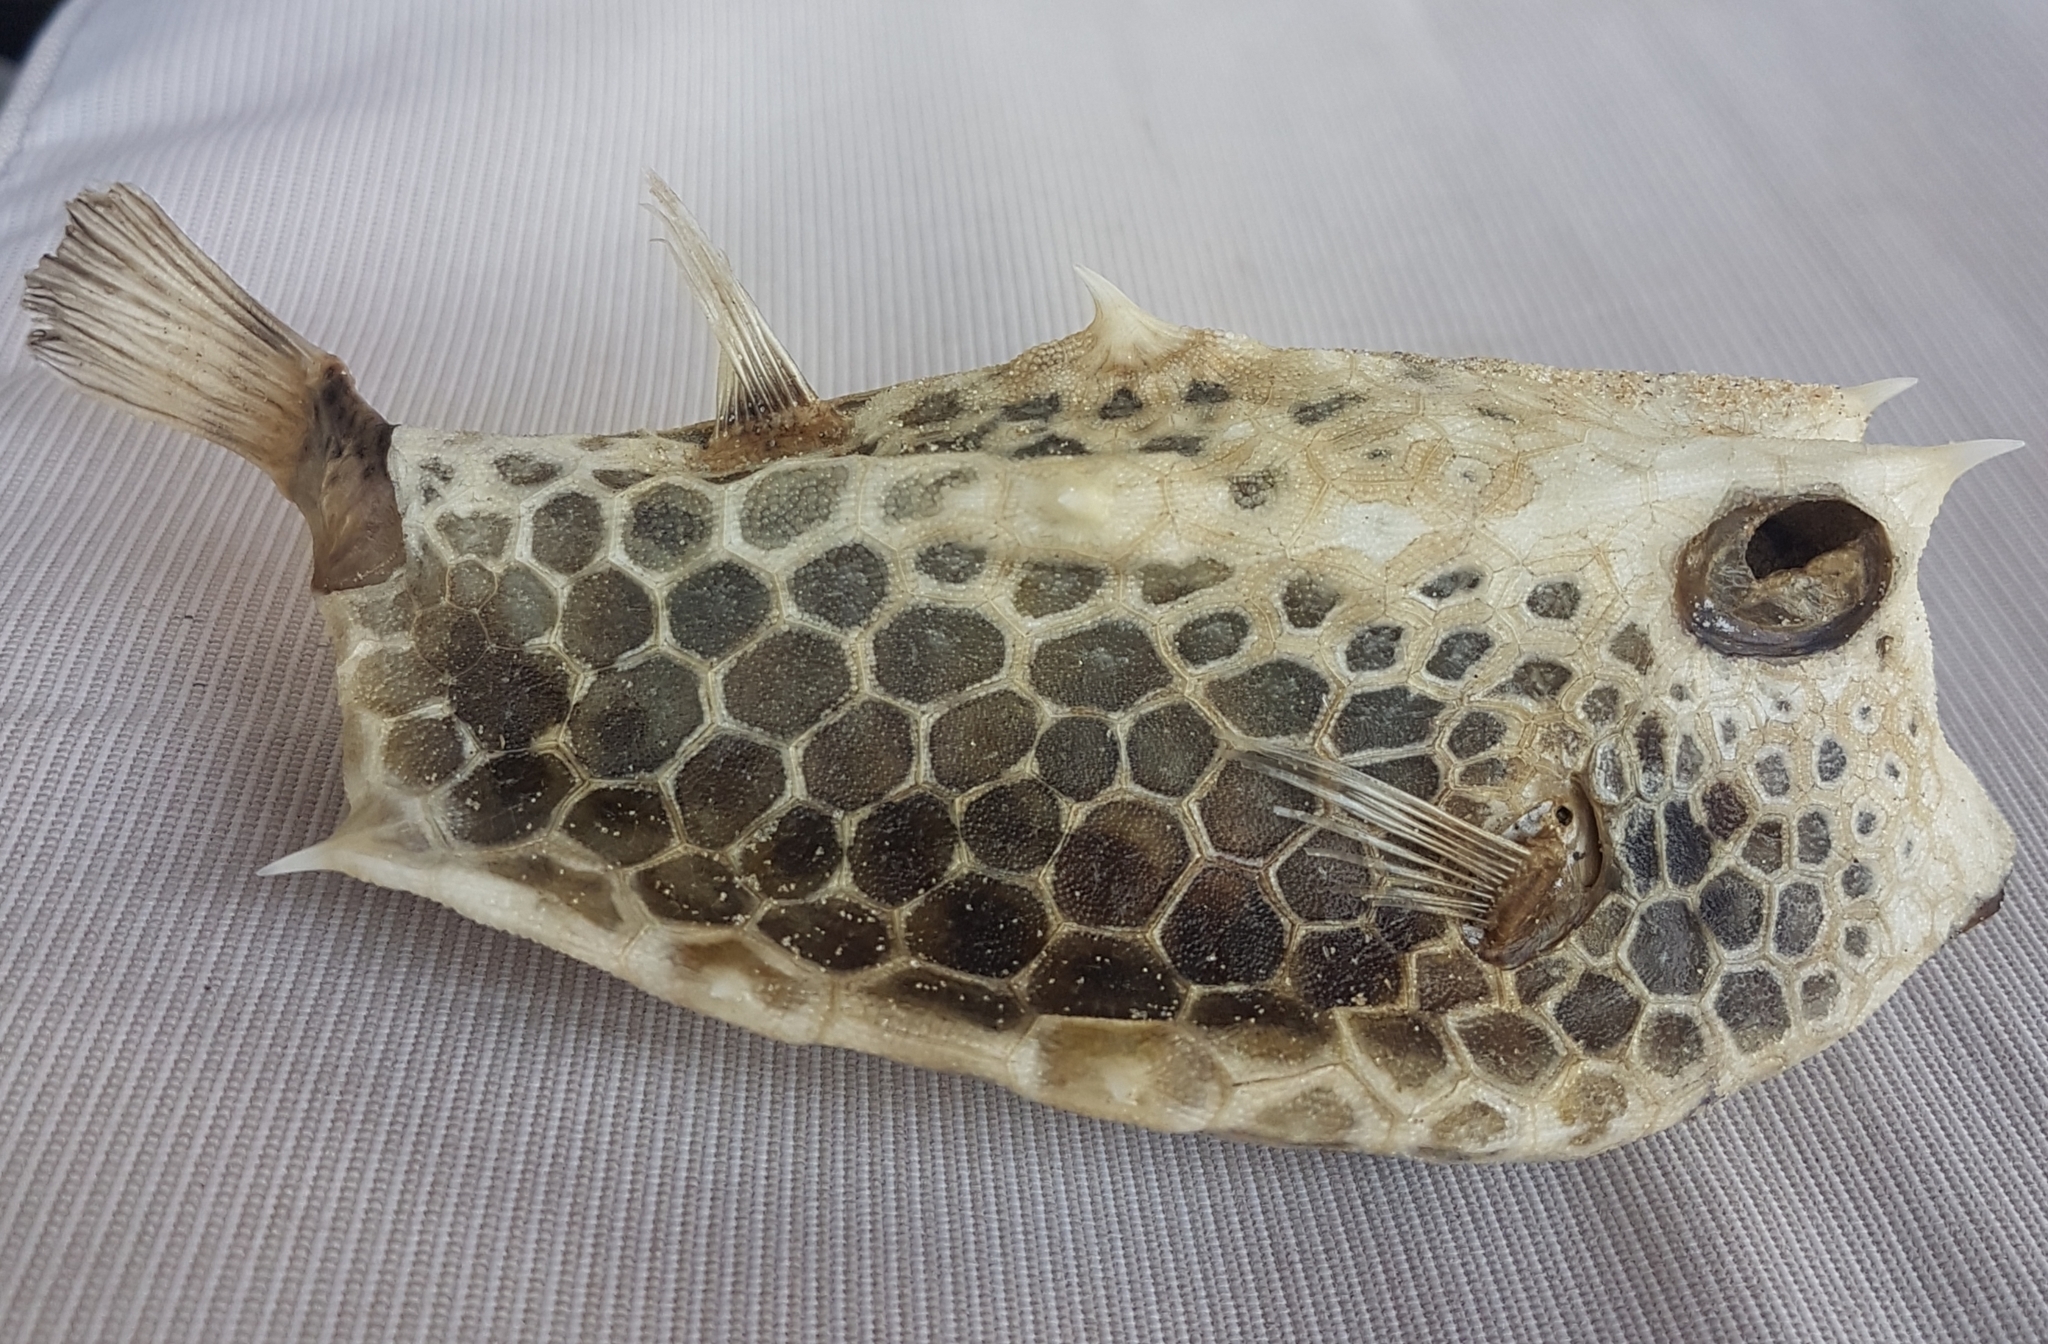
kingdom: Animalia
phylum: Chordata
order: Tetraodontiformes
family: Ostraciidae
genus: Lactoria
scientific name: Lactoria diaphana
